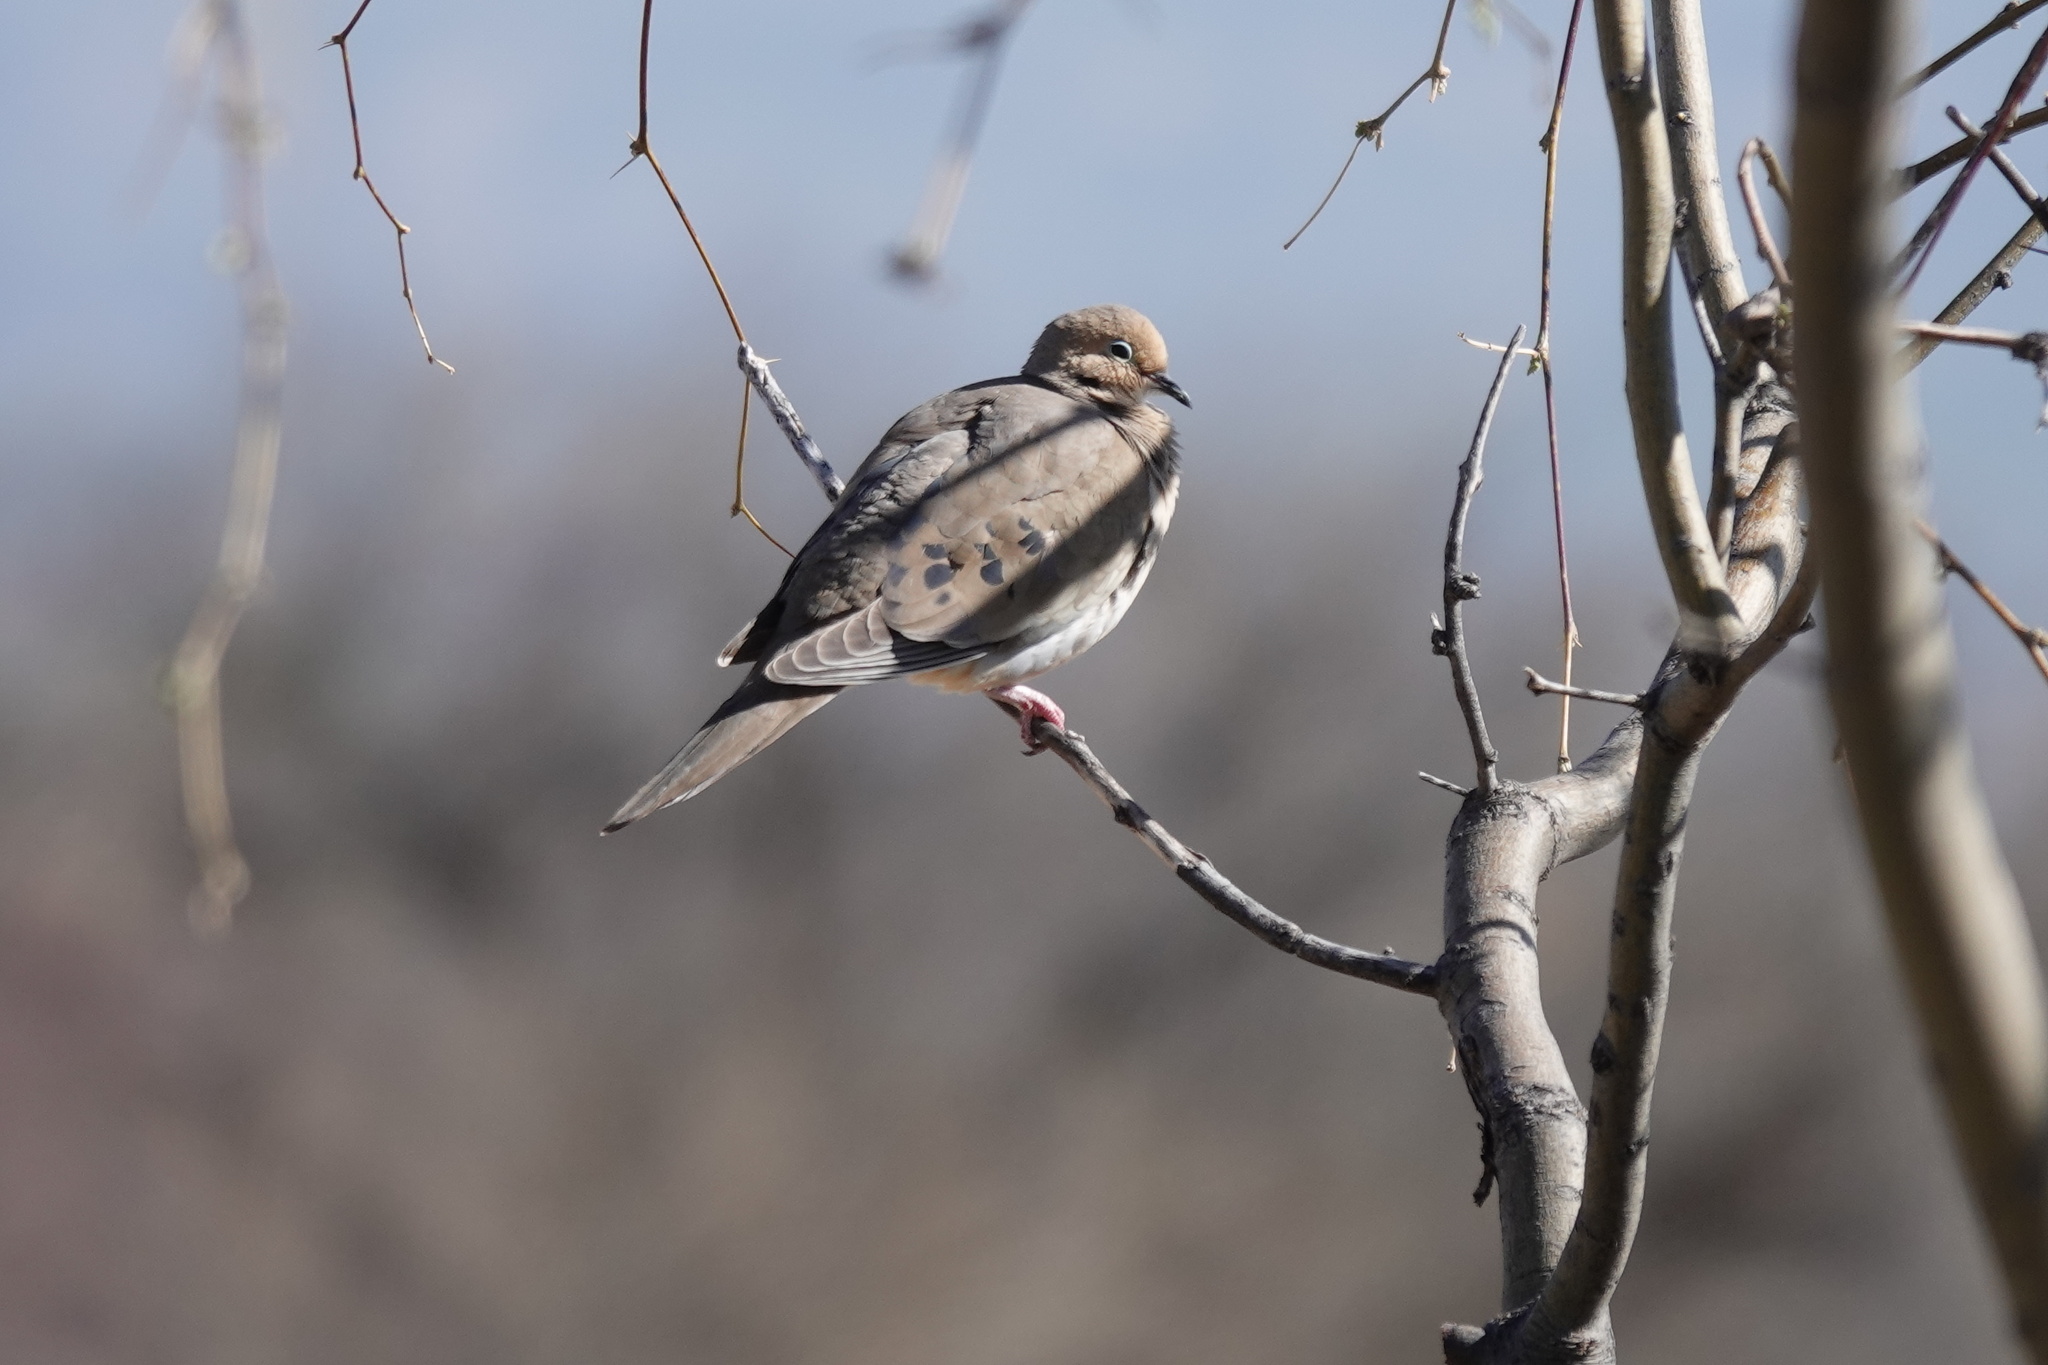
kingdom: Animalia
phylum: Chordata
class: Aves
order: Columbiformes
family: Columbidae
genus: Zenaida
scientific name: Zenaida macroura
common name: Mourning dove
